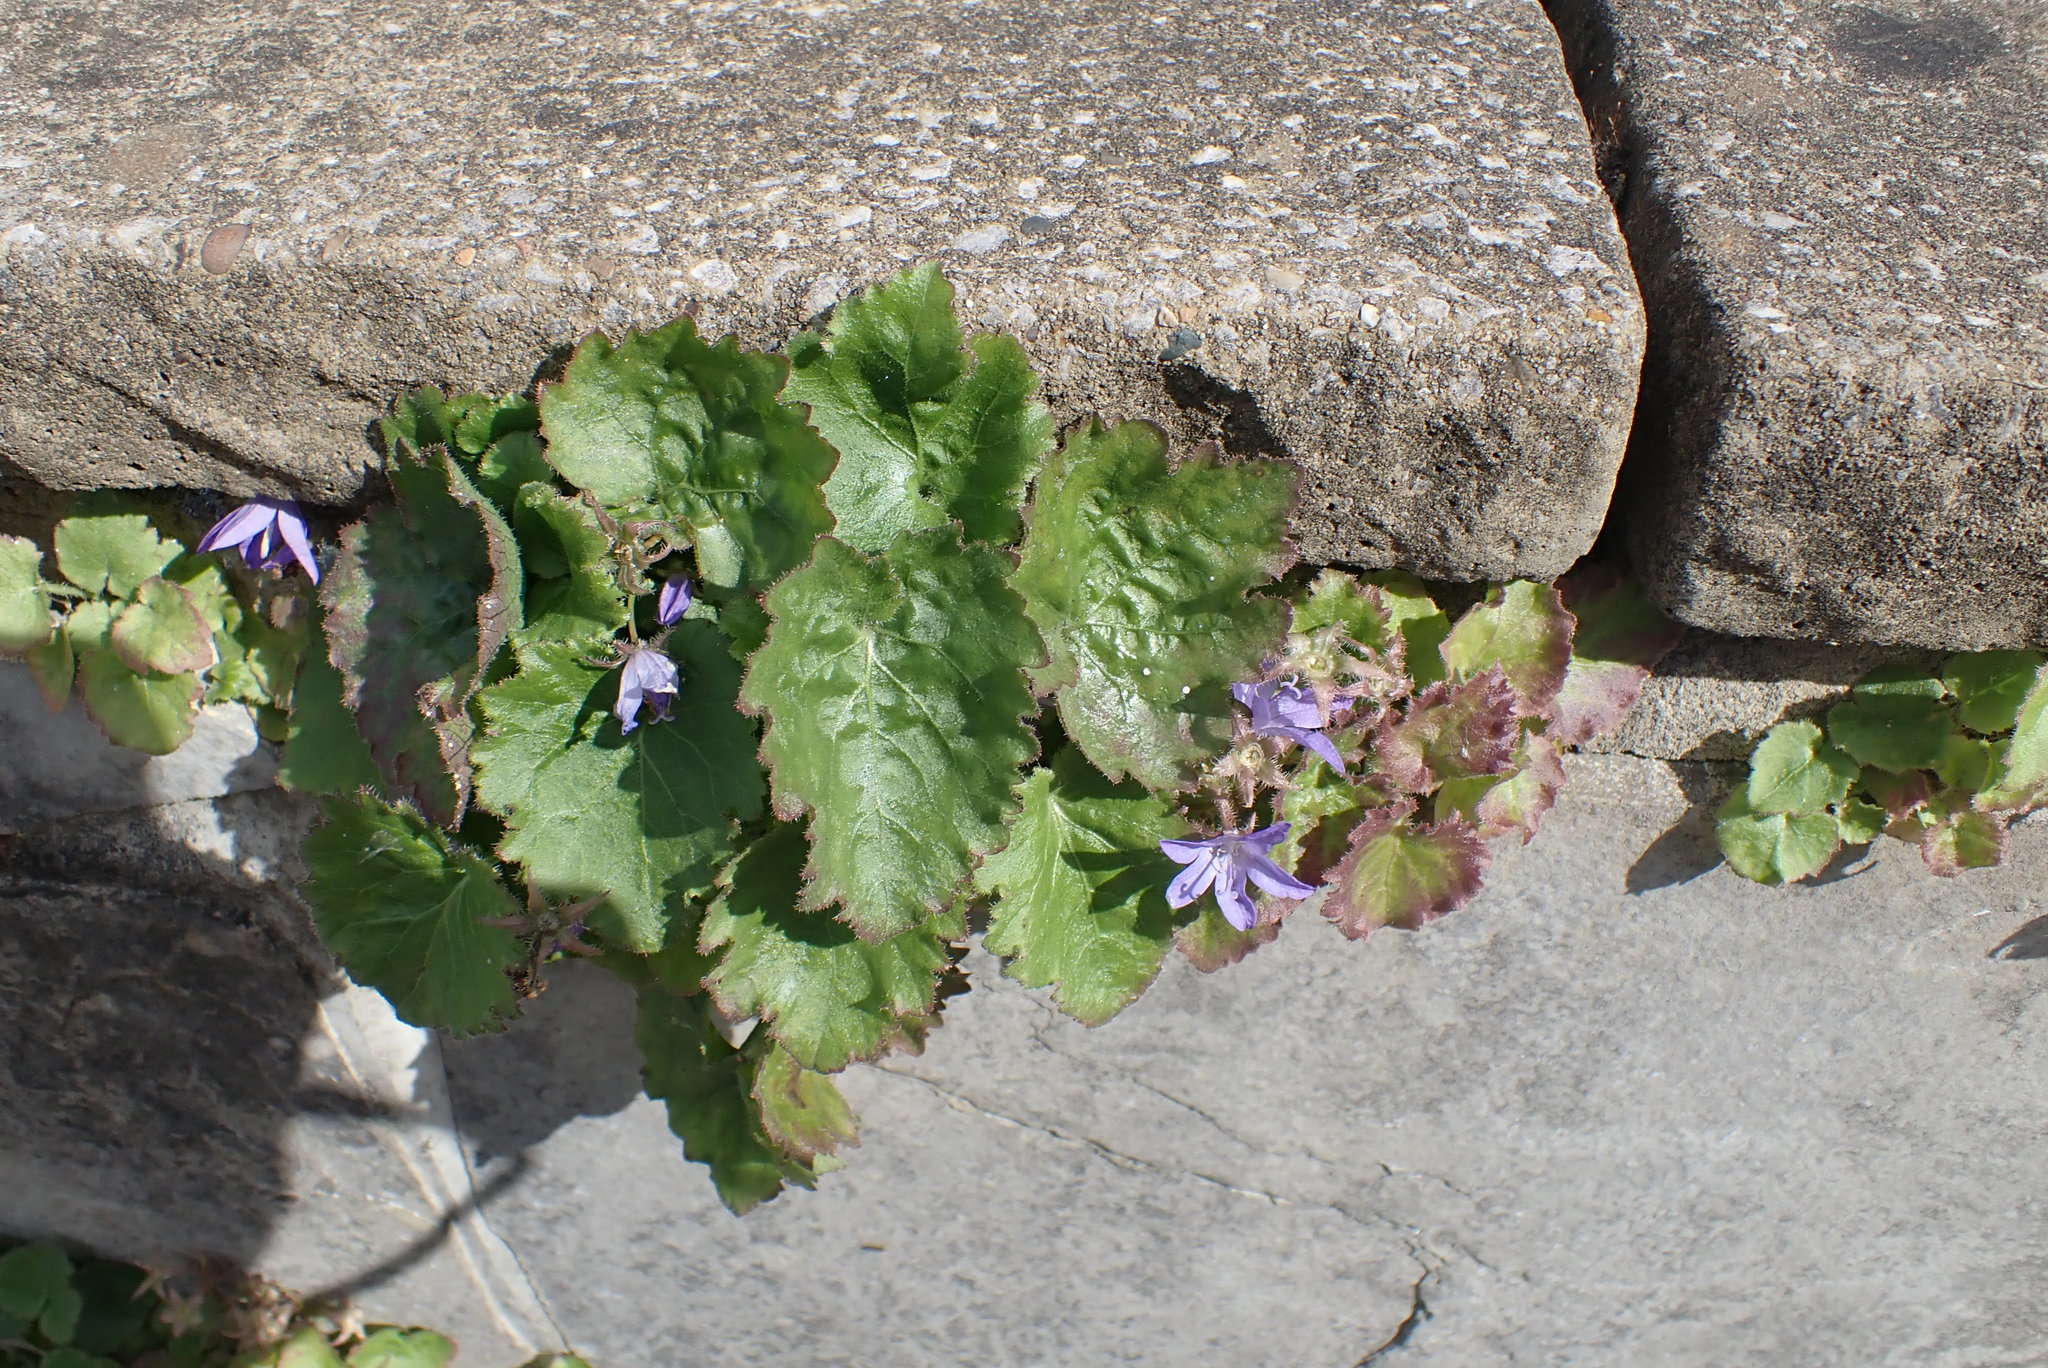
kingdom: Plantae
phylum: Tracheophyta
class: Magnoliopsida
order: Asterales
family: Campanulaceae
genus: Campanula
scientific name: Campanula poscharskyana
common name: Trailing bellflower
